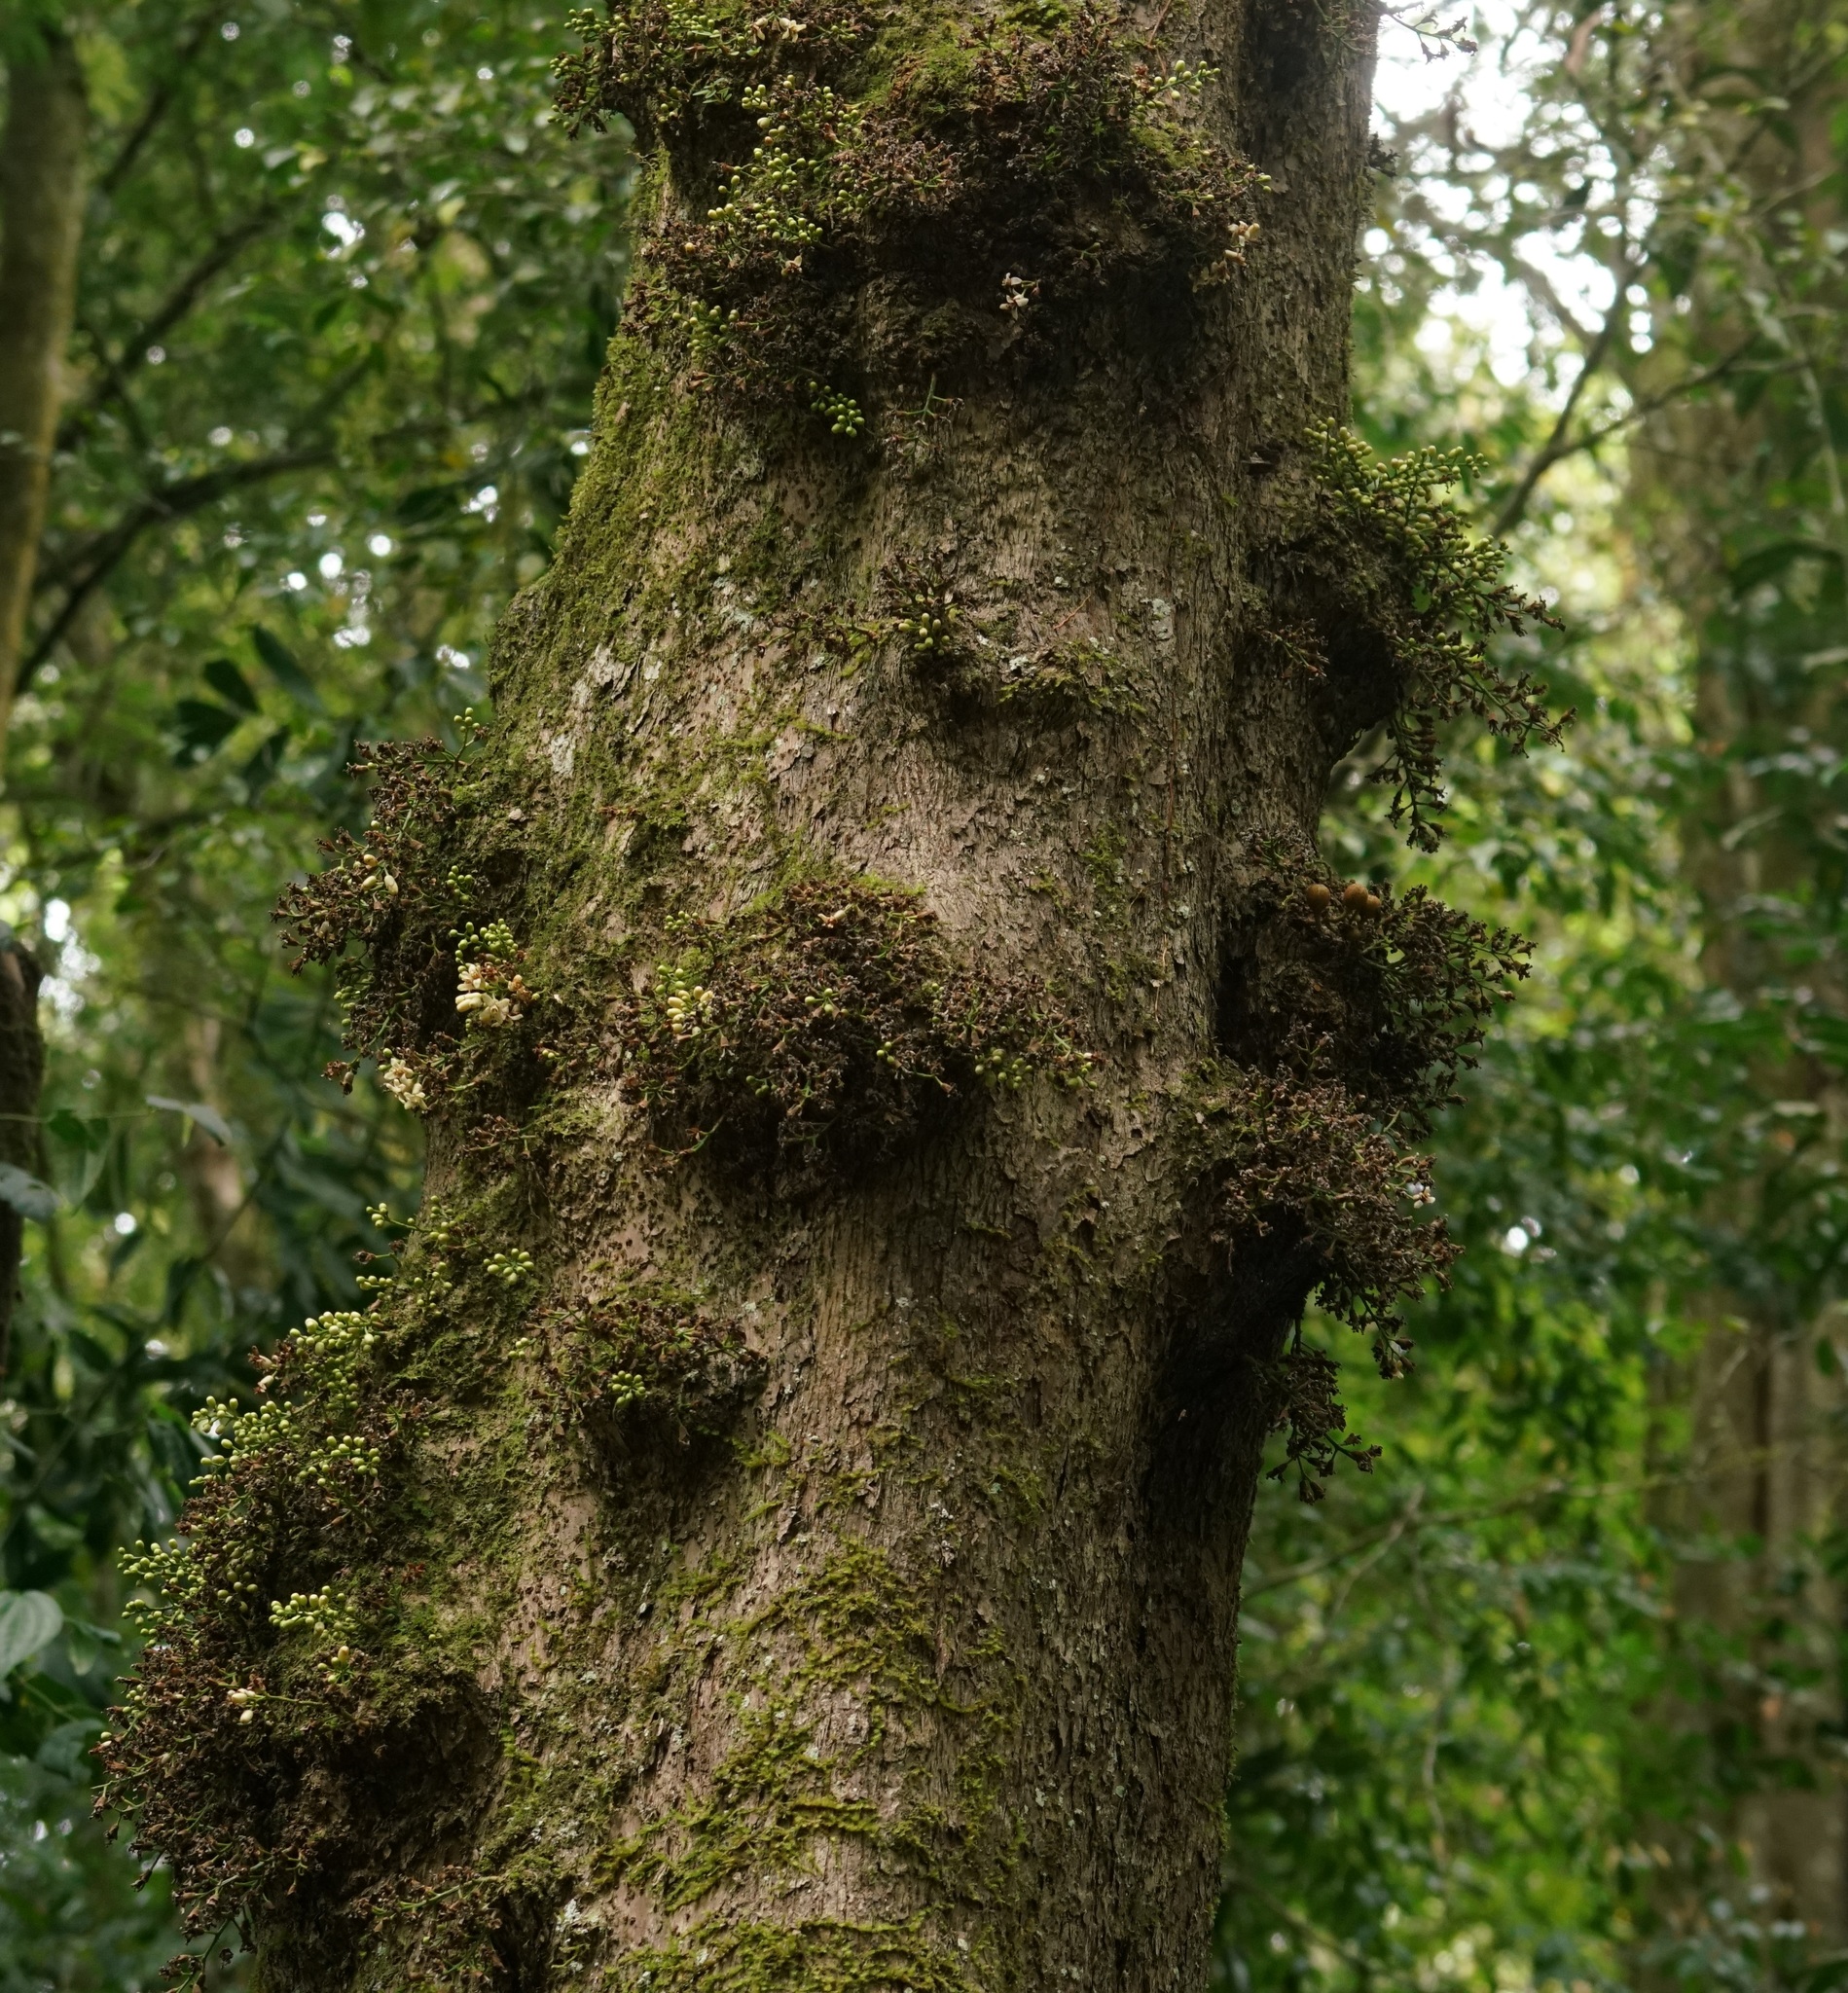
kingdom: Plantae
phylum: Tracheophyta
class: Magnoliopsida
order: Sapindales
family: Meliaceae
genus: Epicharis
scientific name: Epicharis parasitica
